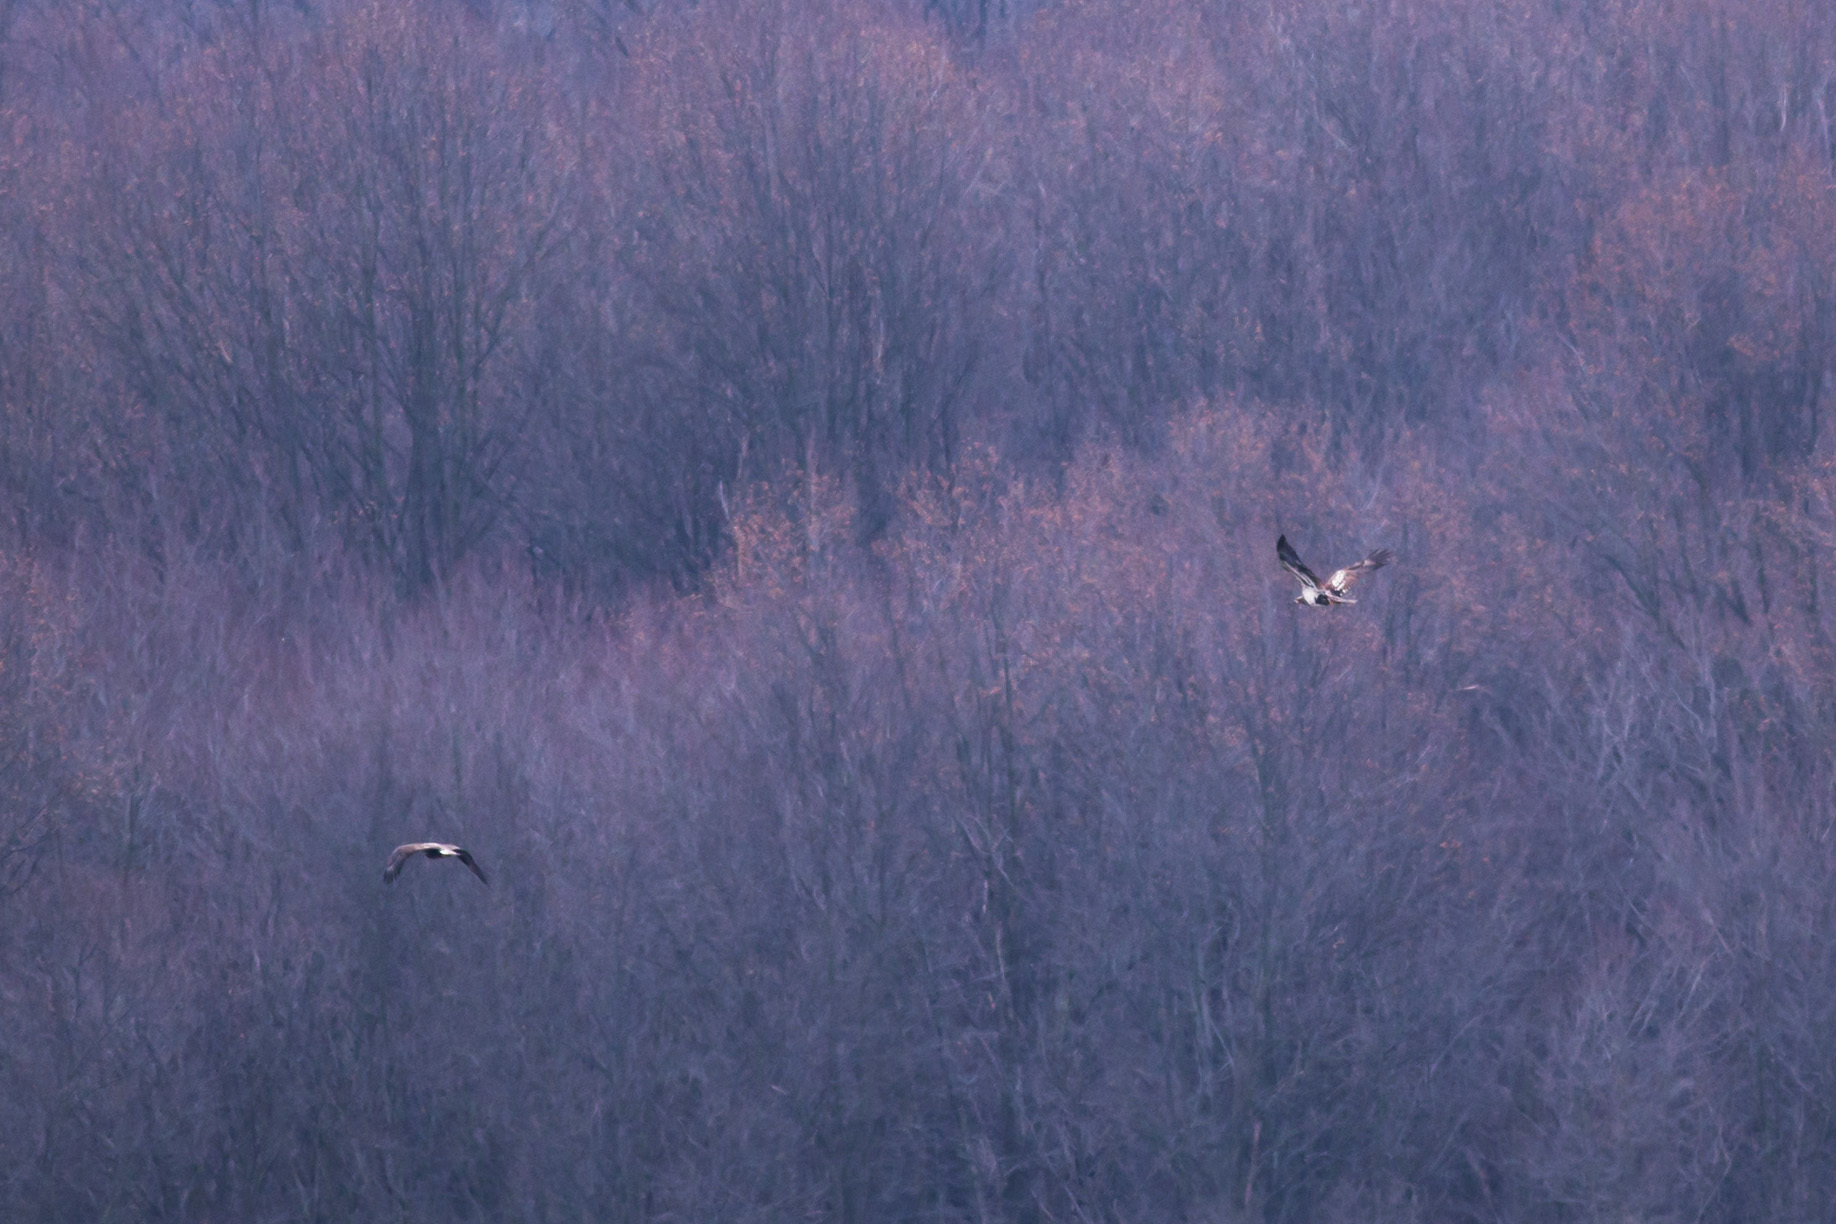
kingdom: Animalia
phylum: Chordata
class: Aves
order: Accipitriformes
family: Accipitridae
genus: Haliaeetus
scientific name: Haliaeetus leucocephalus
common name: Bald eagle
